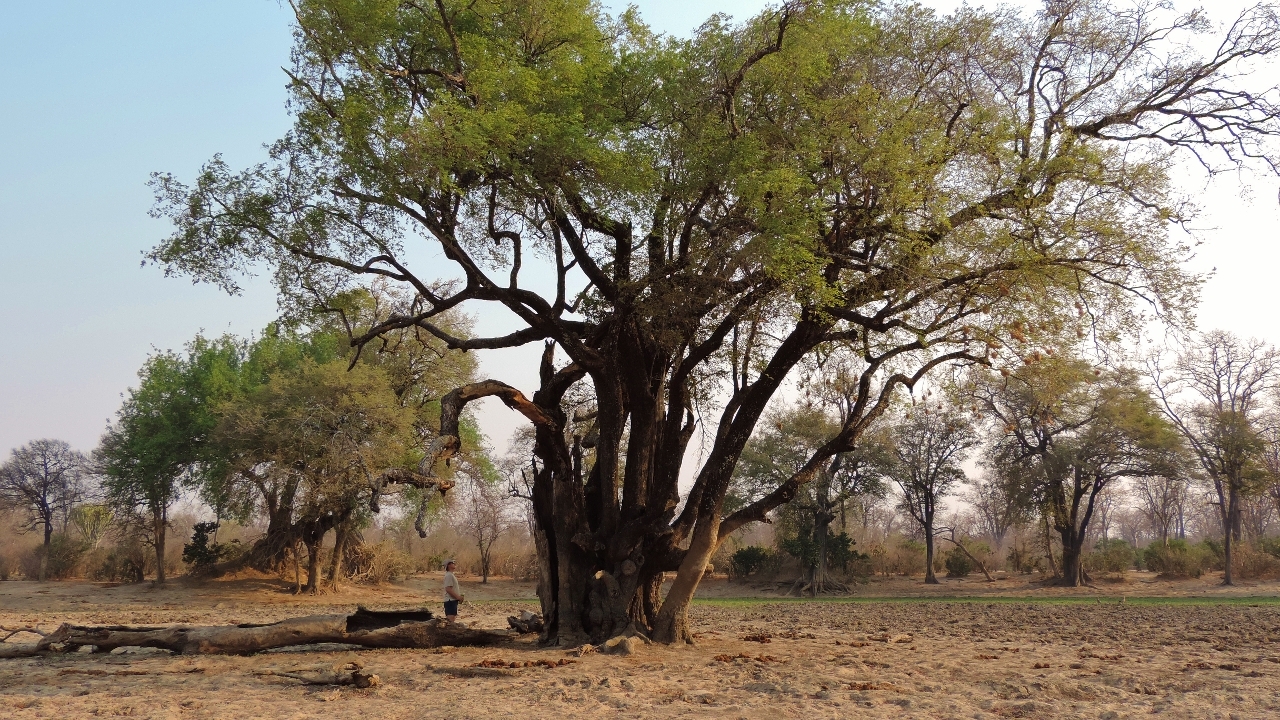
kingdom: Plantae
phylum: Tracheophyta
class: Magnoliopsida
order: Ericales
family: Ebenaceae
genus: Diospyros
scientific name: Diospyros mespiliformis
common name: Ebony diospyros
